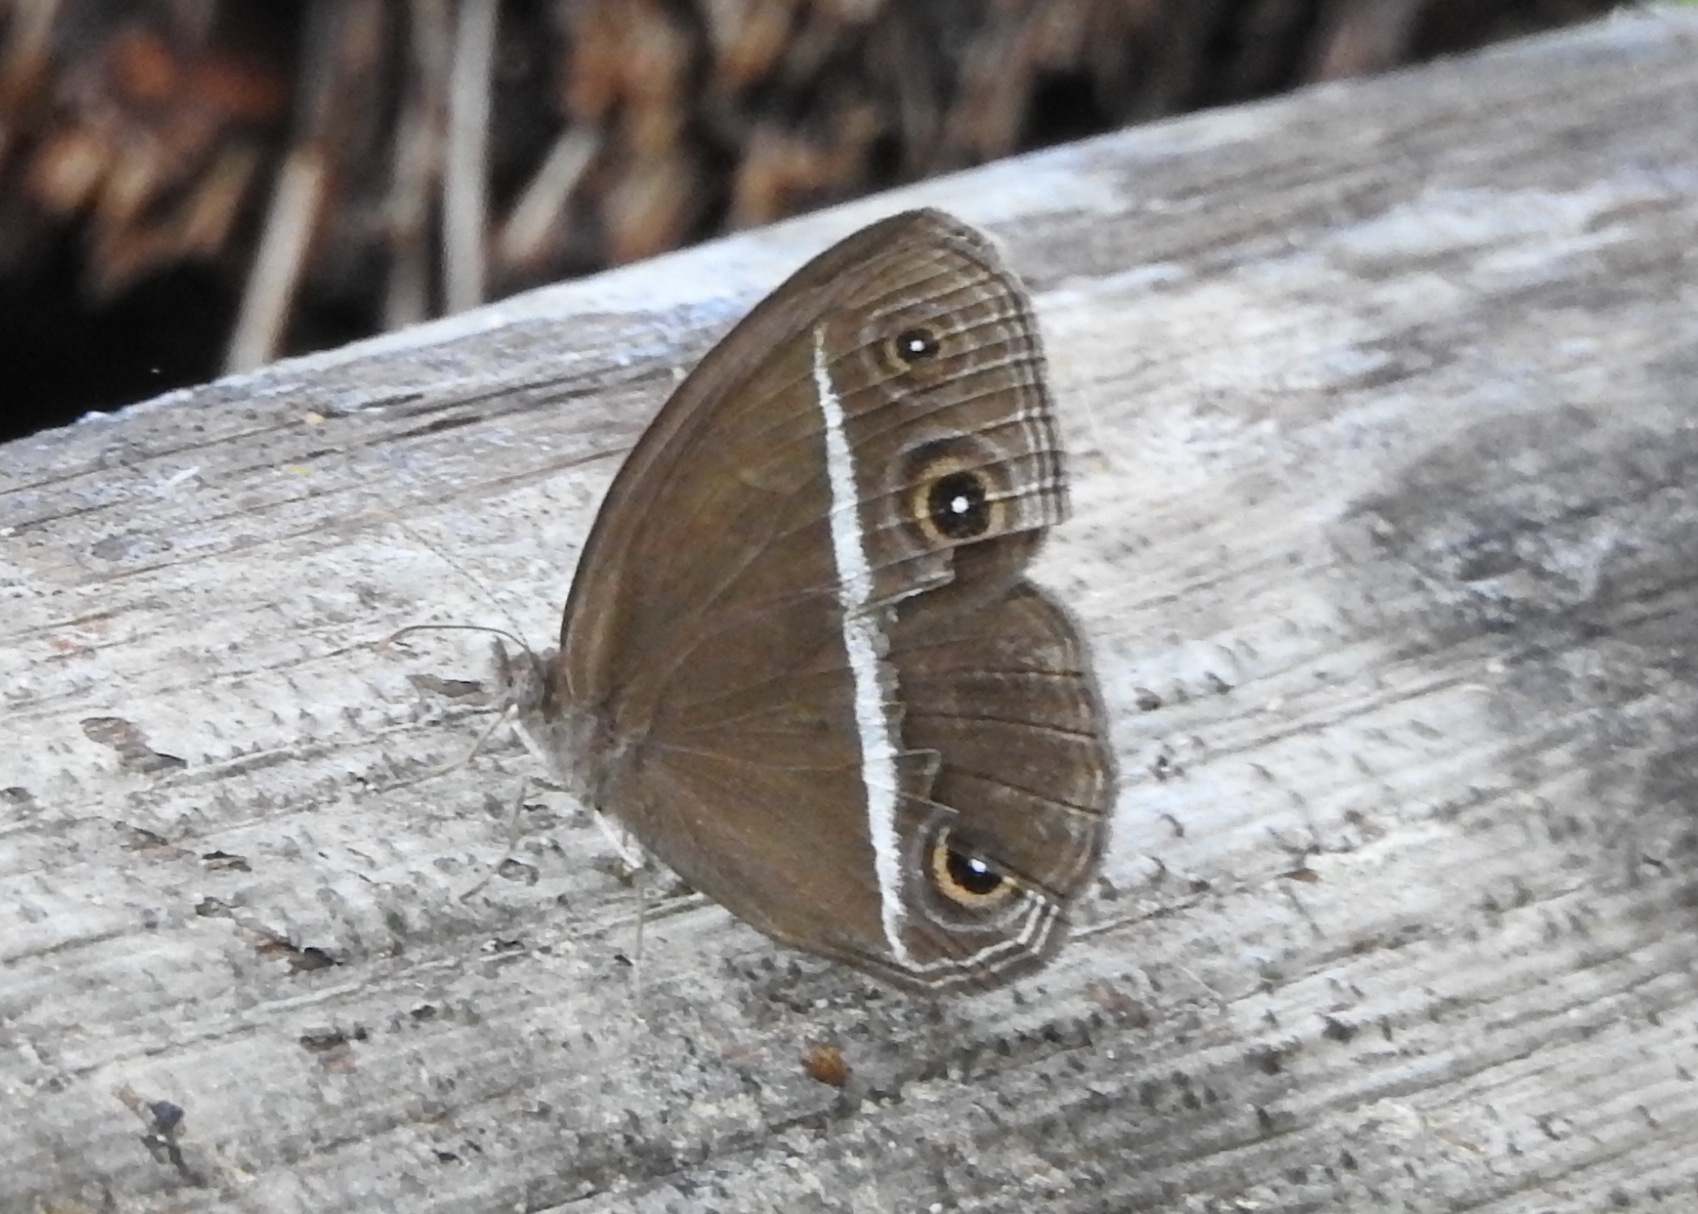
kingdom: Animalia
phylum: Arthropoda
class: Insecta
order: Lepidoptera
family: Nymphalidae
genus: Orsotriaena
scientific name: Orsotriaena medus
